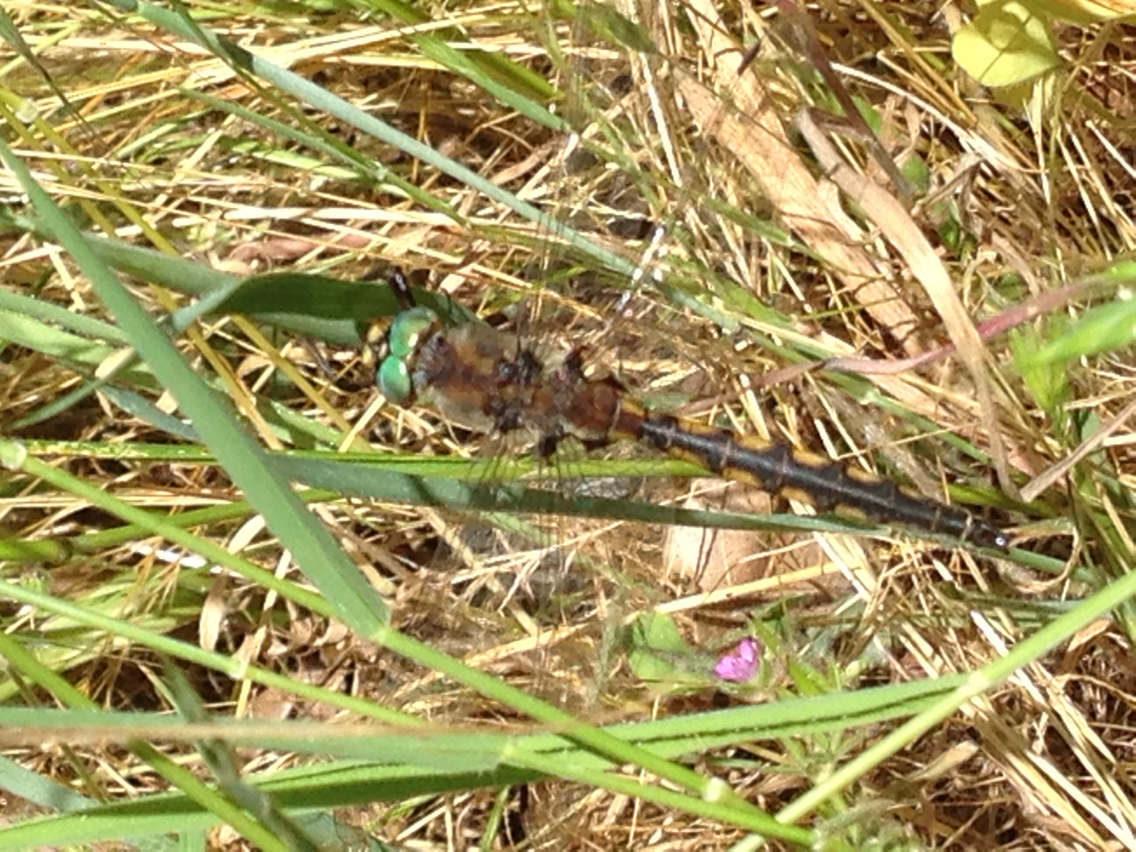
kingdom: Animalia
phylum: Arthropoda
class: Insecta
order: Odonata
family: Corduliidae
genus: Epitheca
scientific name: Epitheca canis
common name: Beaverpond baskettail
